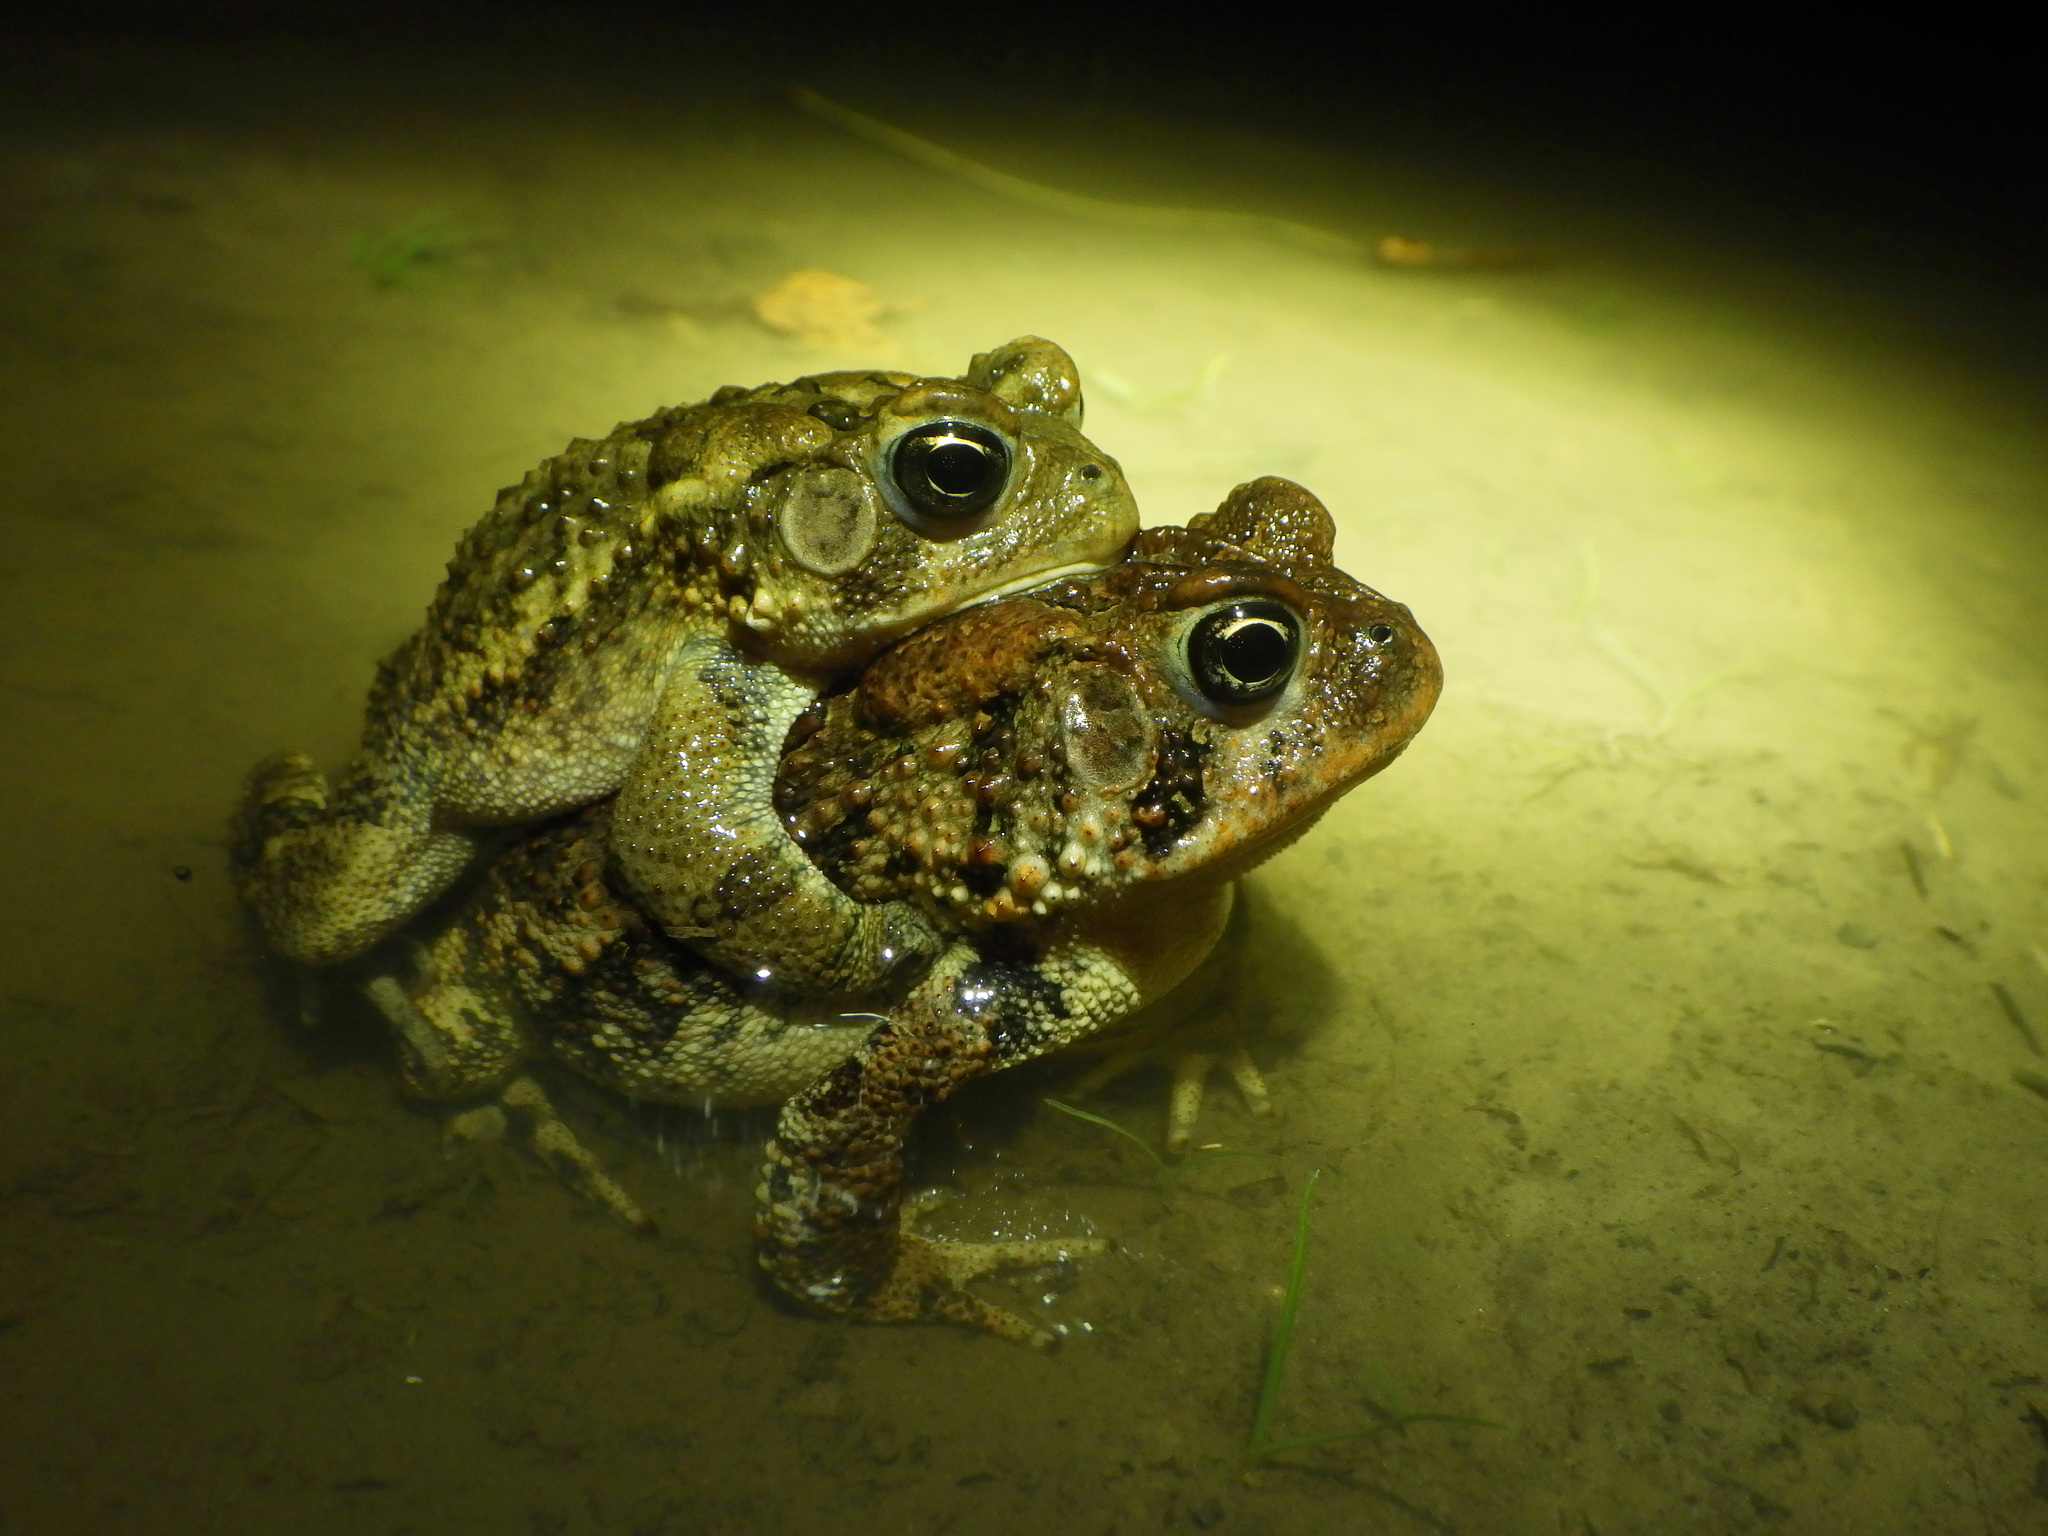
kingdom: Animalia
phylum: Chordata
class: Amphibia
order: Anura
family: Bufonidae
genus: Anaxyrus
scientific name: Anaxyrus terrestris
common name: Southern toad
